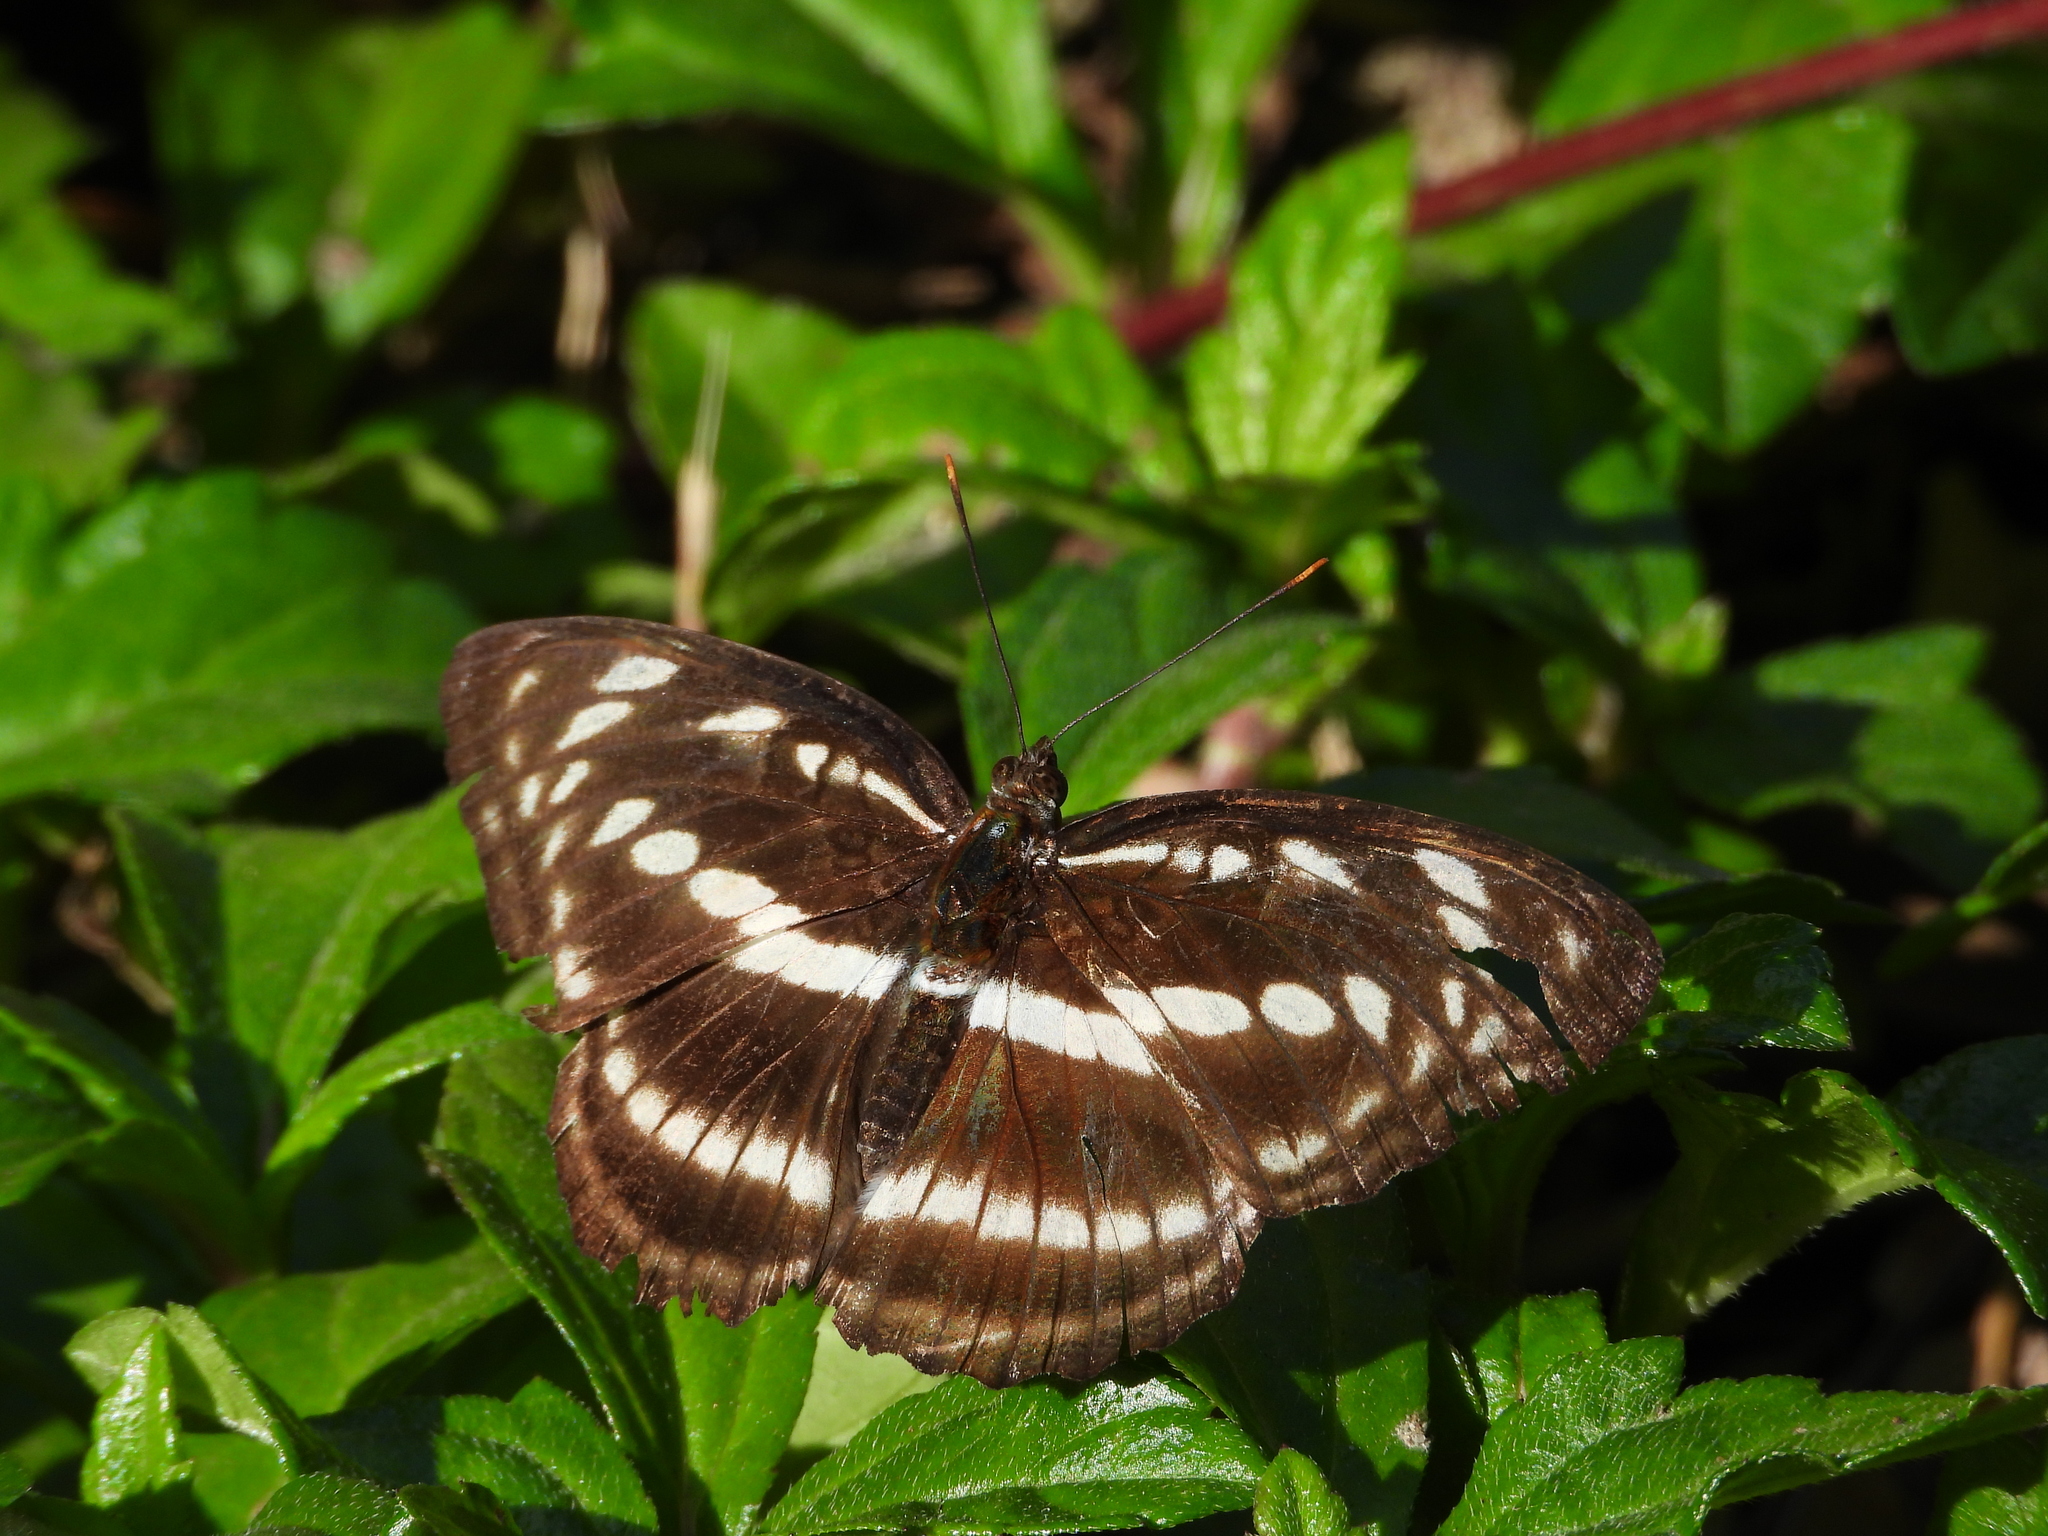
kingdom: Animalia
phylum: Arthropoda
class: Insecta
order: Lepidoptera
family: Nymphalidae
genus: Parathyma
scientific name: Parathyma selenophora
